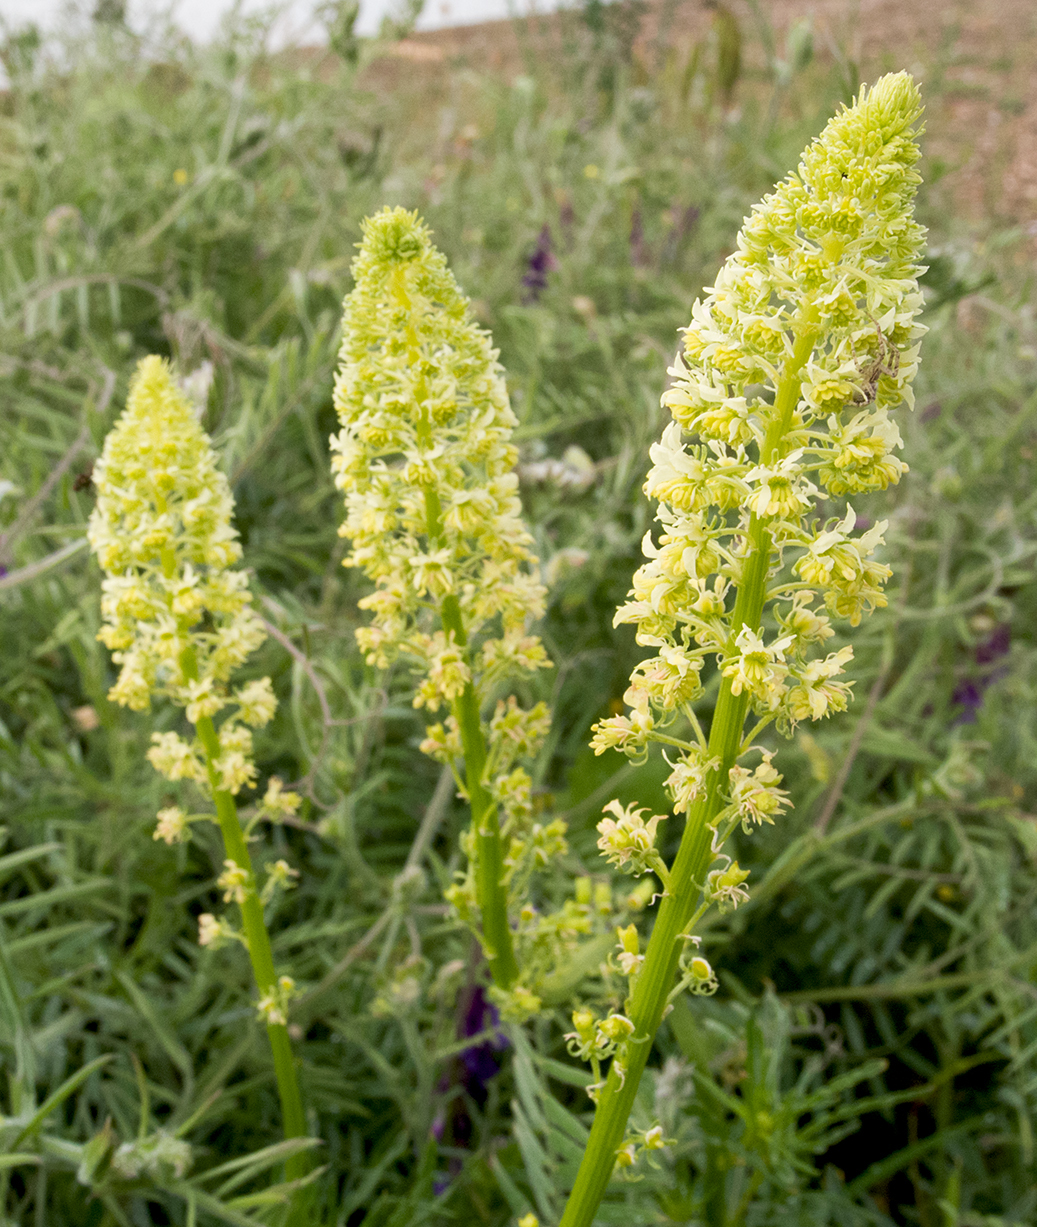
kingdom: Plantae
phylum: Tracheophyta
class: Magnoliopsida
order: Brassicales
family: Resedaceae
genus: Reseda
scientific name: Reseda lutea
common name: Wild mignonette
